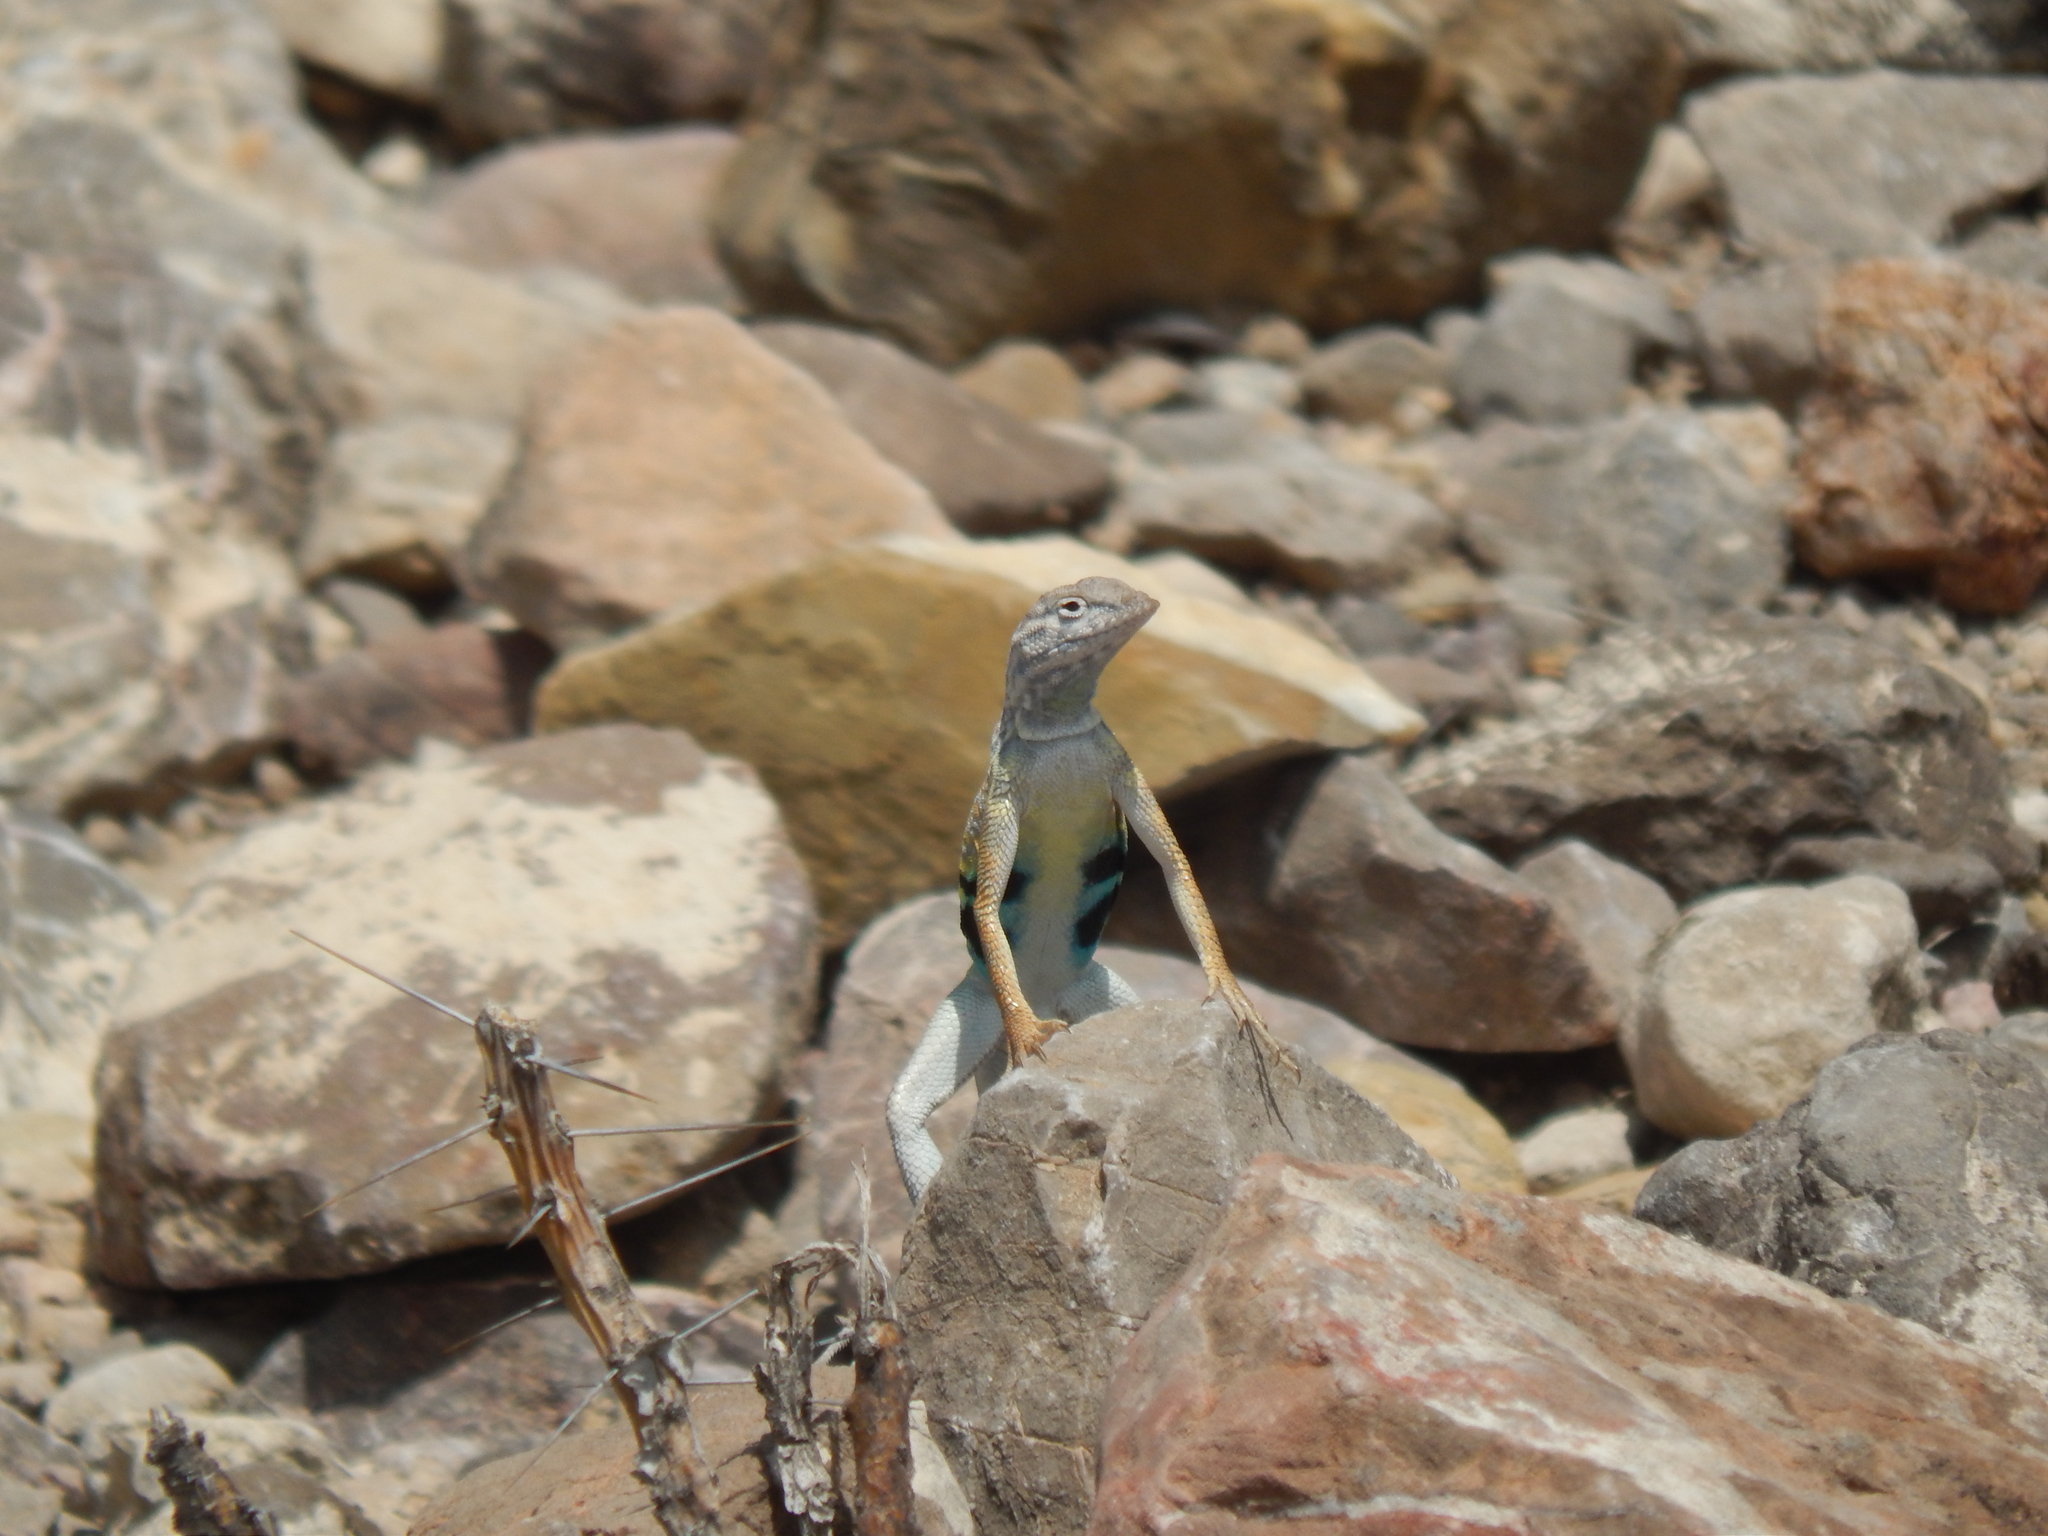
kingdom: Animalia
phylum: Chordata
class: Squamata
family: Phrynosomatidae
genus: Cophosaurus
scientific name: Cophosaurus texanus
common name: Greater earless lizard
